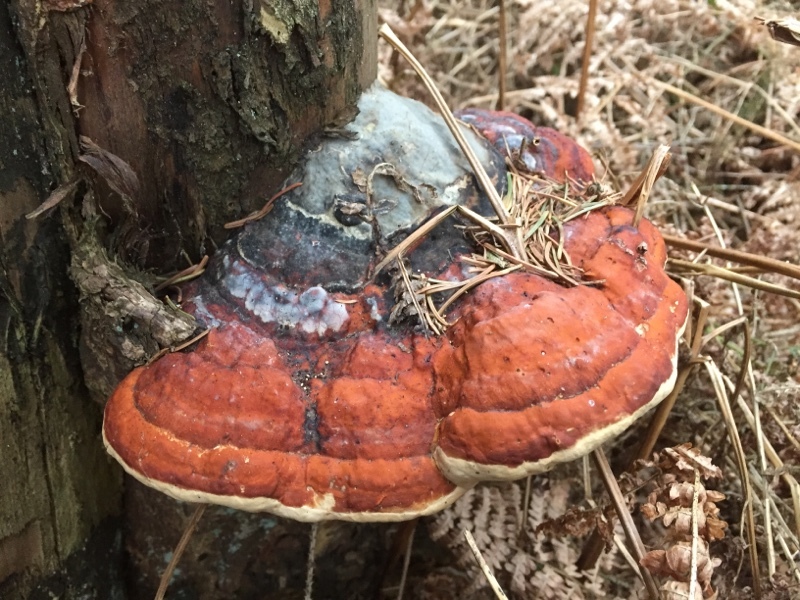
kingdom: Fungi
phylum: Basidiomycota
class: Agaricomycetes
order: Polyporales
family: Fomitopsidaceae
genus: Fomitopsis
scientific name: Fomitopsis pinicola
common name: Red-belted bracket
